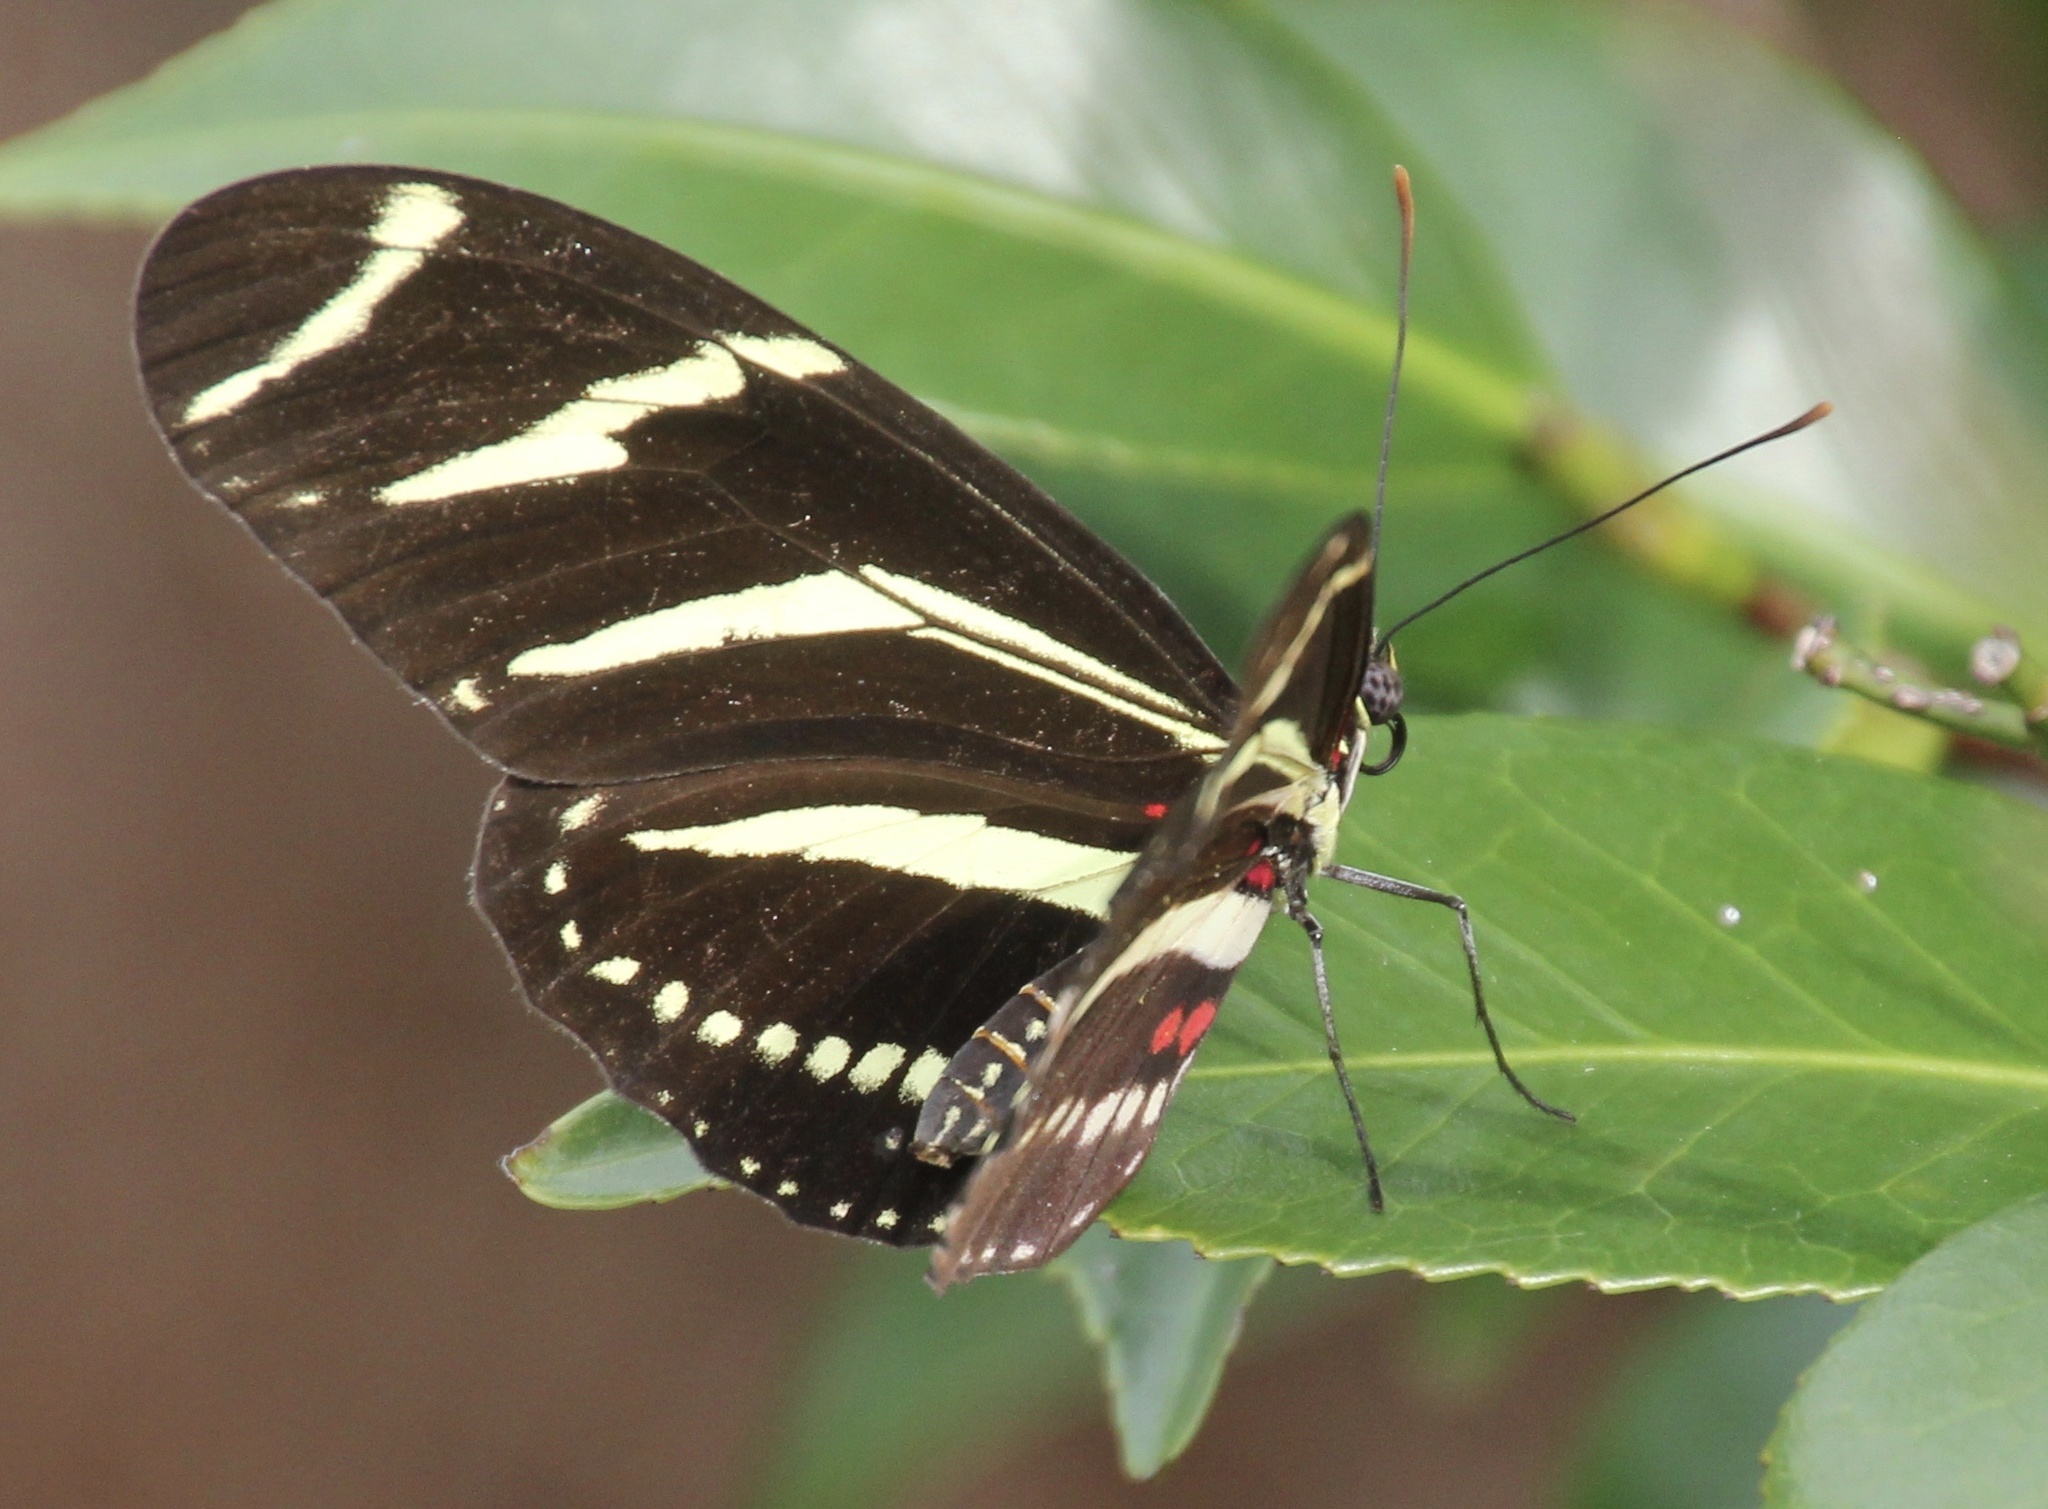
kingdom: Animalia
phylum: Arthropoda
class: Insecta
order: Lepidoptera
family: Nymphalidae
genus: Heliconius
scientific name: Heliconius charithonia
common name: Zebra long wing
